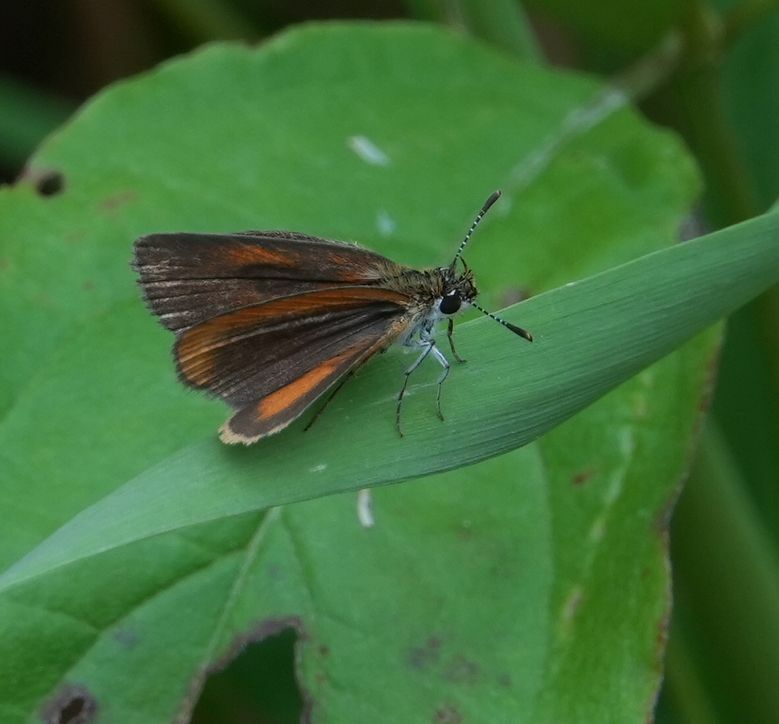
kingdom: Animalia
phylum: Arthropoda
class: Insecta
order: Lepidoptera
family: Hesperiidae
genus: Ancyloxypha
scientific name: Ancyloxypha numitor
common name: Least skipper
